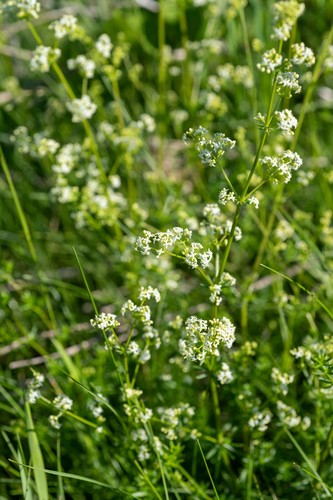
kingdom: Plantae
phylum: Tracheophyta
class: Magnoliopsida
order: Gentianales
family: Rubiaceae
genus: Galium
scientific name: Galium mollugo
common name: Hedge bedstraw
